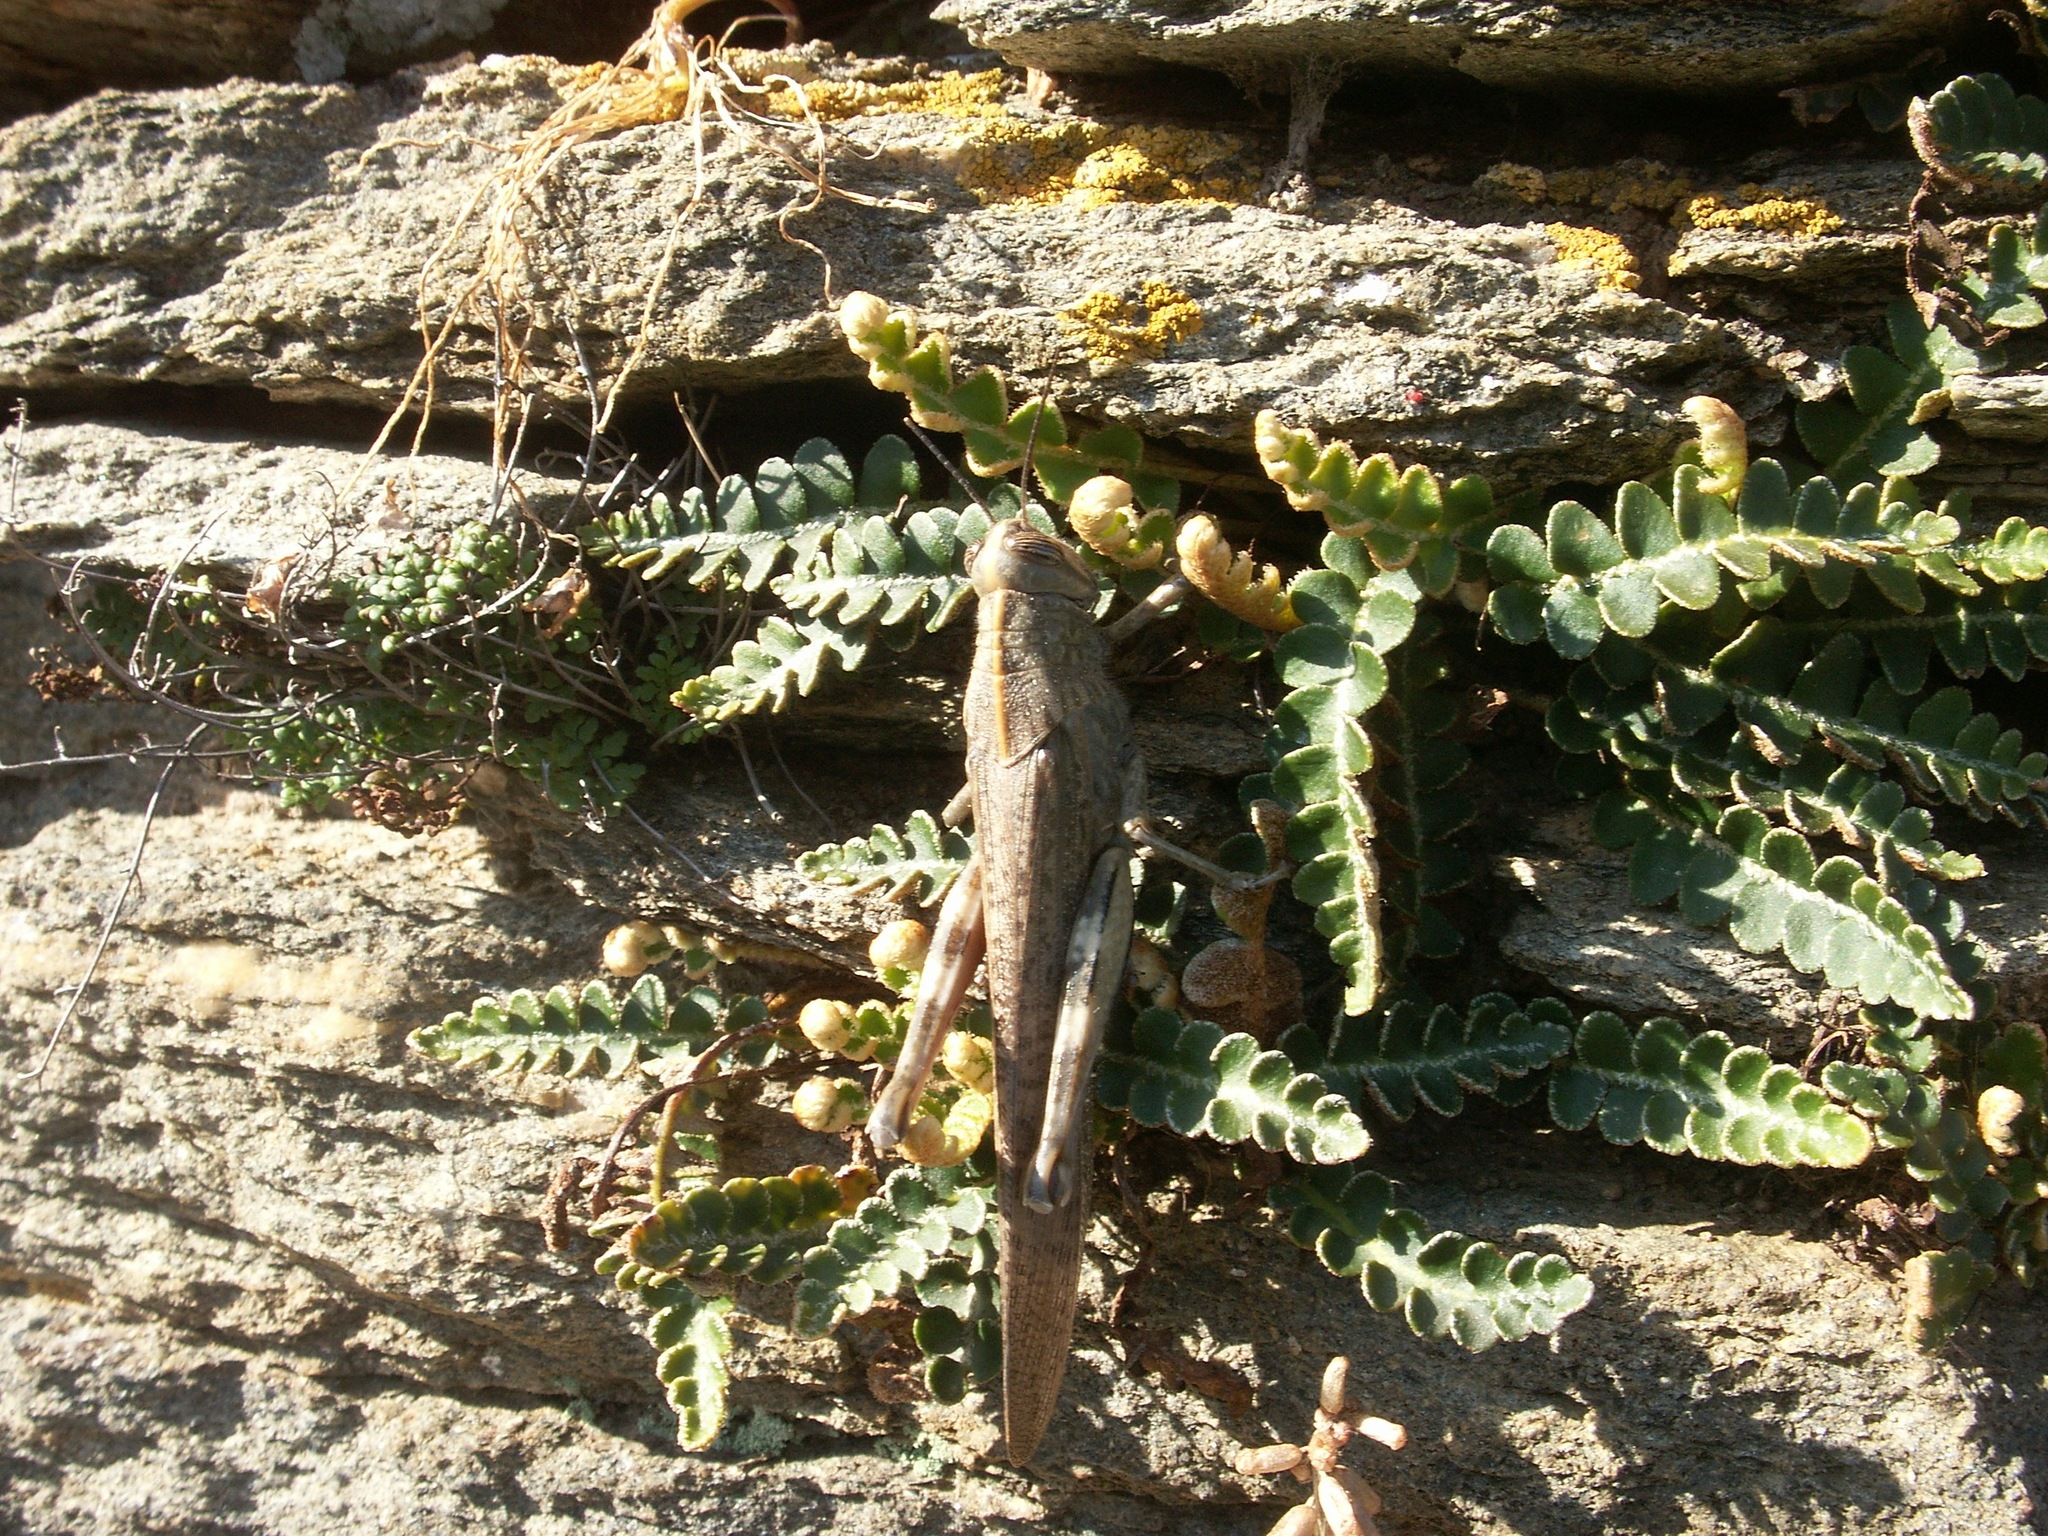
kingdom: Animalia
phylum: Arthropoda
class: Insecta
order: Orthoptera
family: Acrididae
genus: Anacridium
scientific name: Anacridium aegyptium
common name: Egyptian grasshopper
